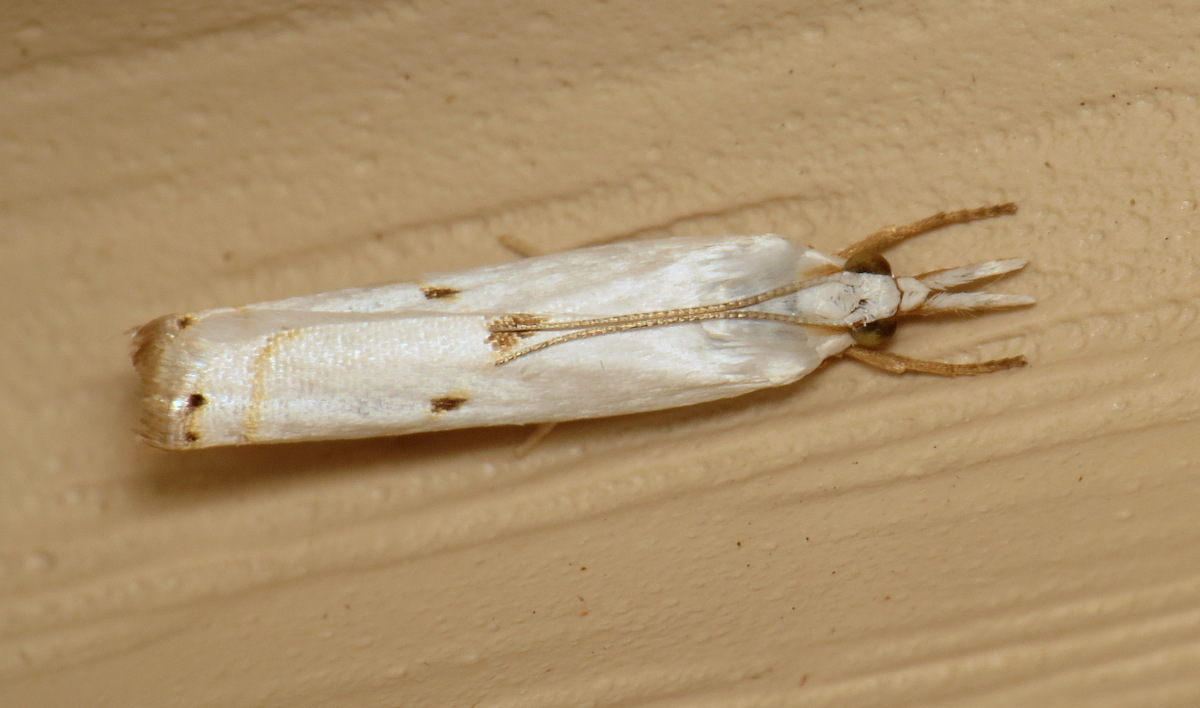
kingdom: Animalia
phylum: Arthropoda
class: Insecta
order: Lepidoptera
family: Crambidae
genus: Microcrambus
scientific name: Microcrambus biguttellus
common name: Gold-stripe grass-veneer moth
